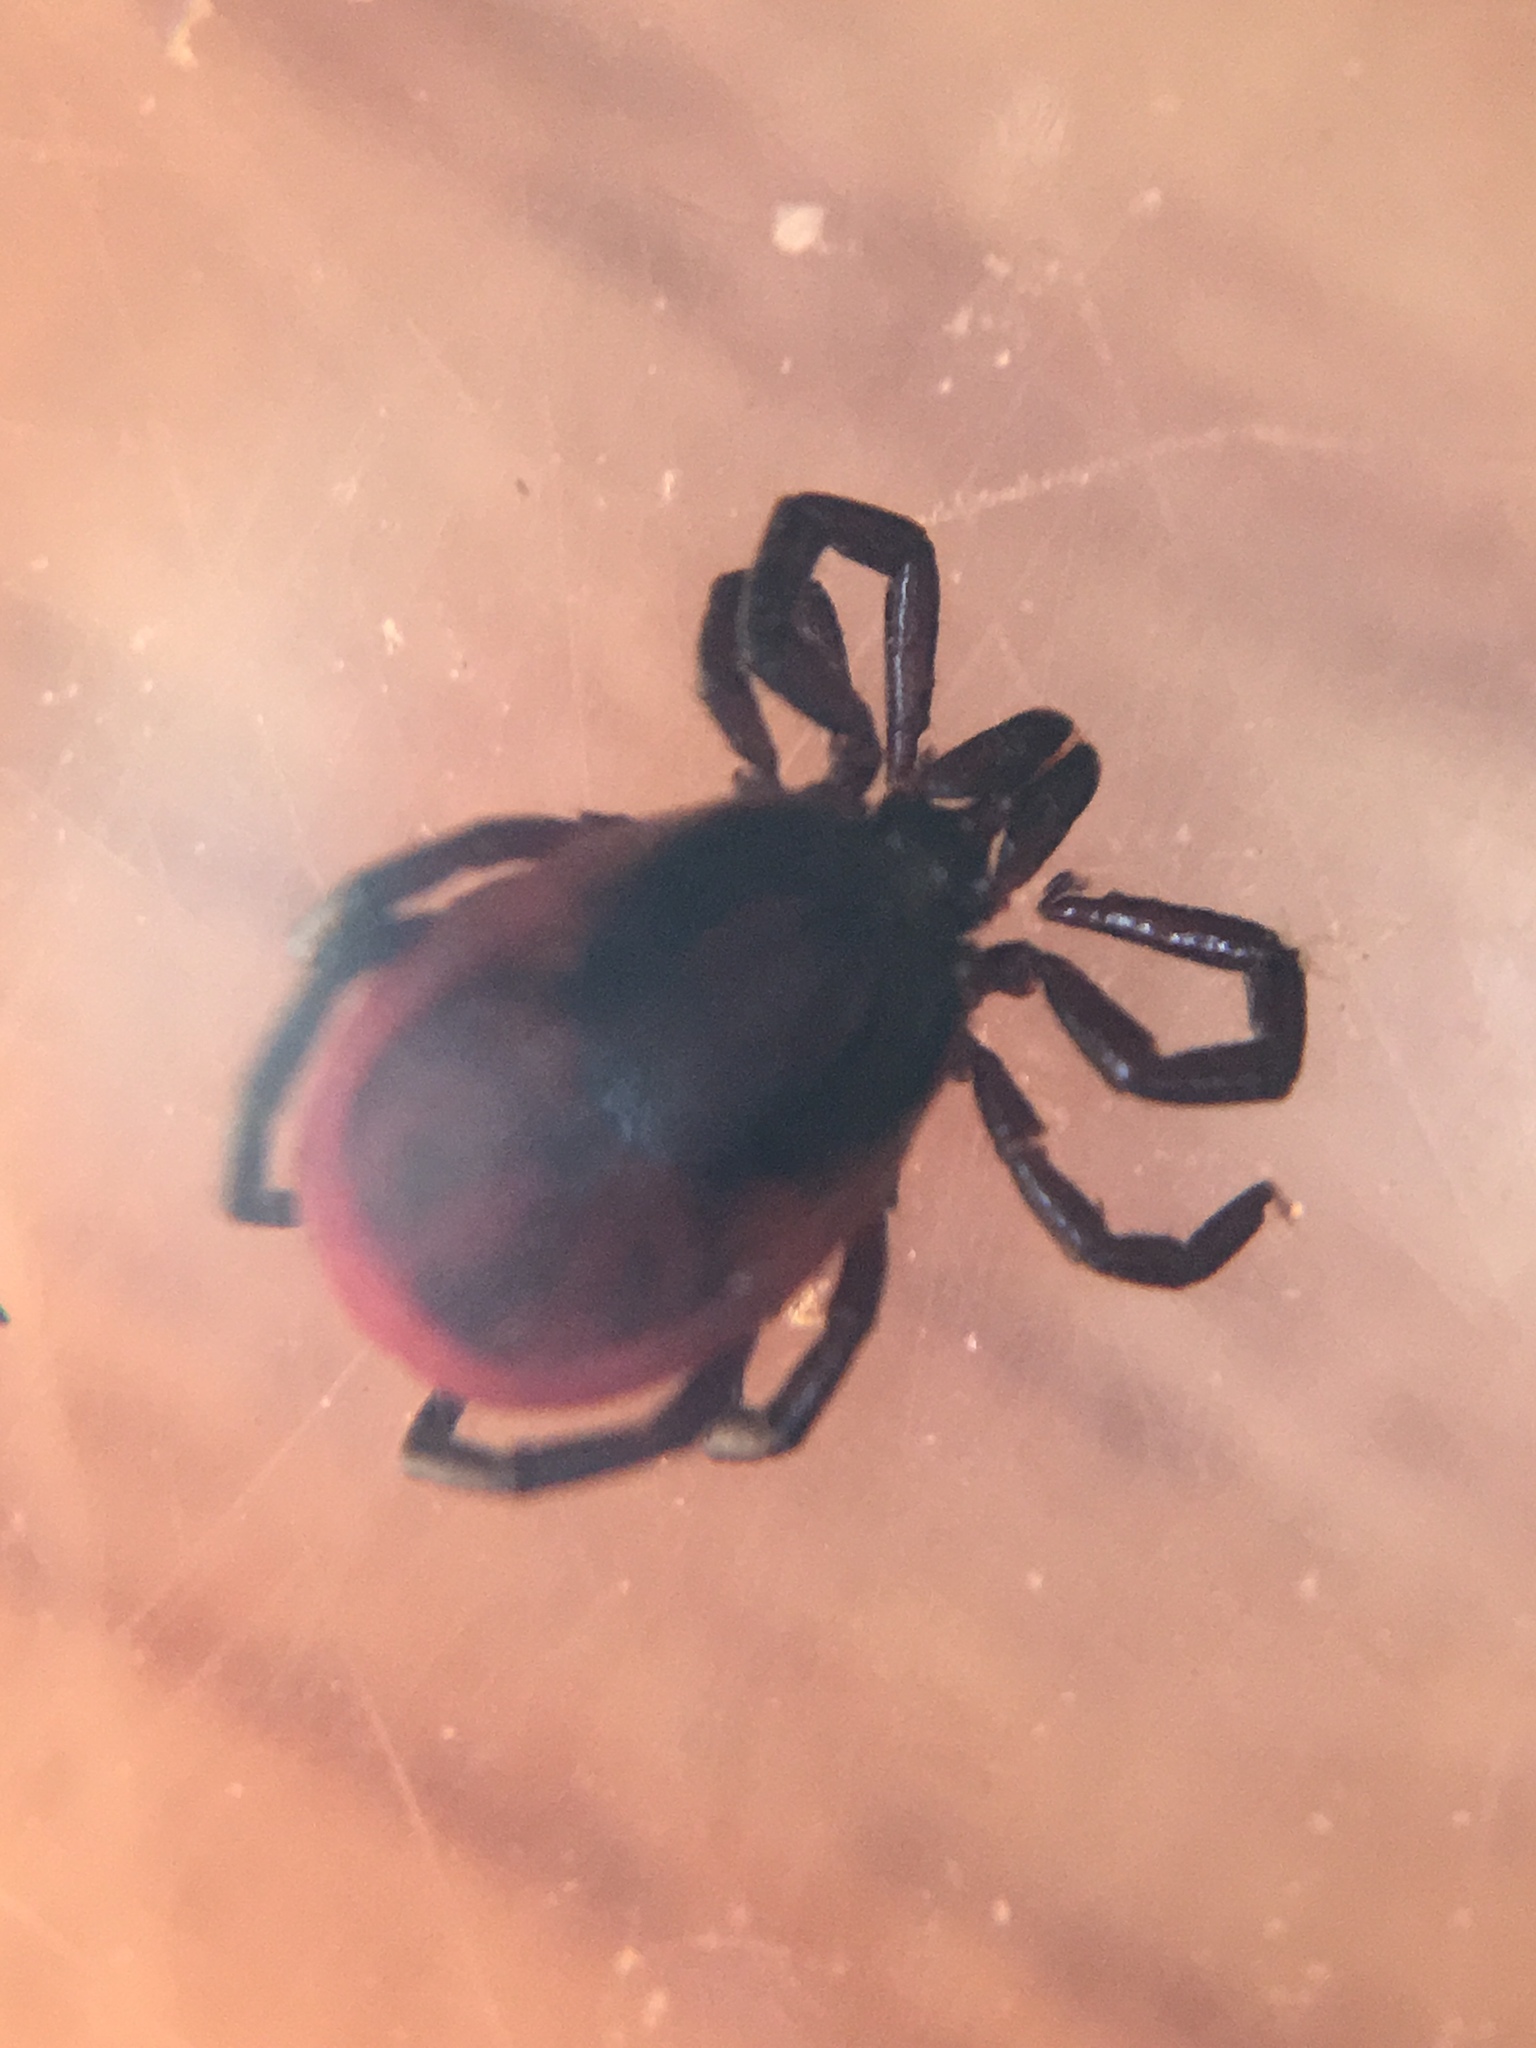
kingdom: Animalia
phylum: Arthropoda
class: Arachnida
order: Ixodida
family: Ixodidae
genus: Ixodes
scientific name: Ixodes ricinus
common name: Castor bean tick
